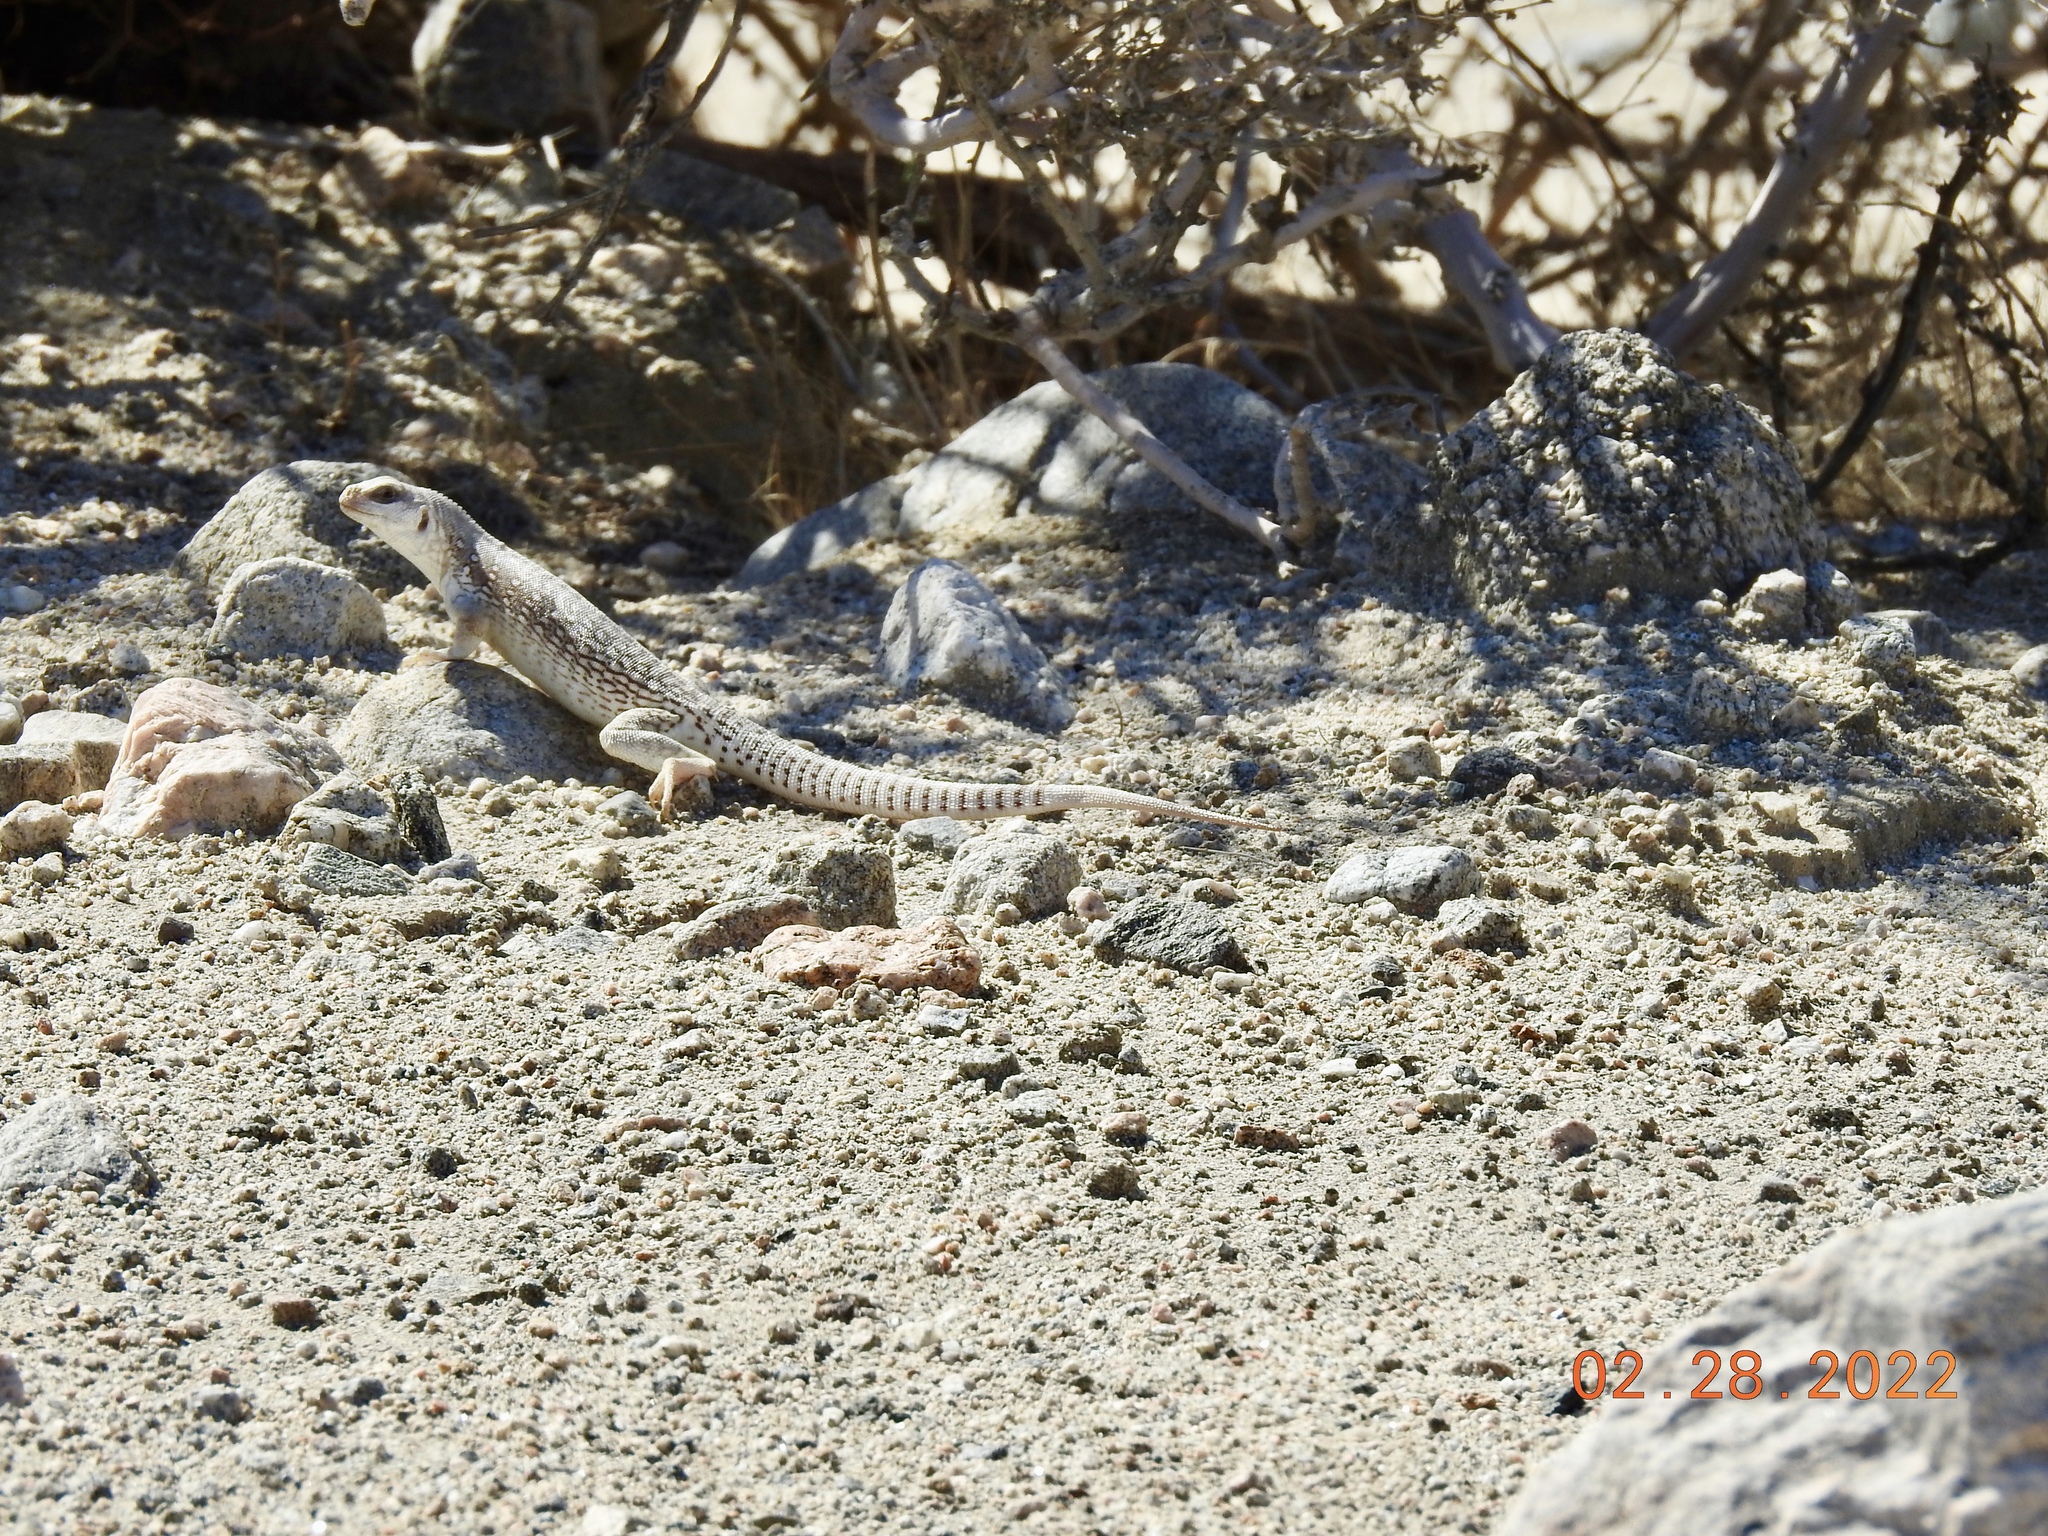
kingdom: Animalia
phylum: Chordata
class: Squamata
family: Iguanidae
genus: Dipsosaurus
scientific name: Dipsosaurus dorsalis
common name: Desert iguana
